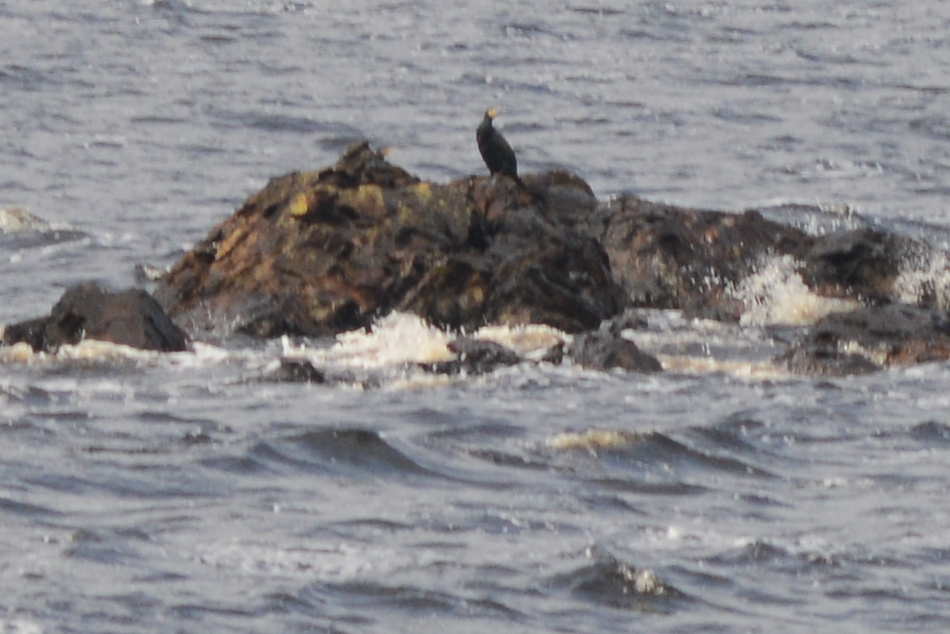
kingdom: Animalia
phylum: Chordata
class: Aves
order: Suliformes
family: Phalacrocoracidae
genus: Phalacrocorax
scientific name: Phalacrocorax carbo
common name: Great cormorant
